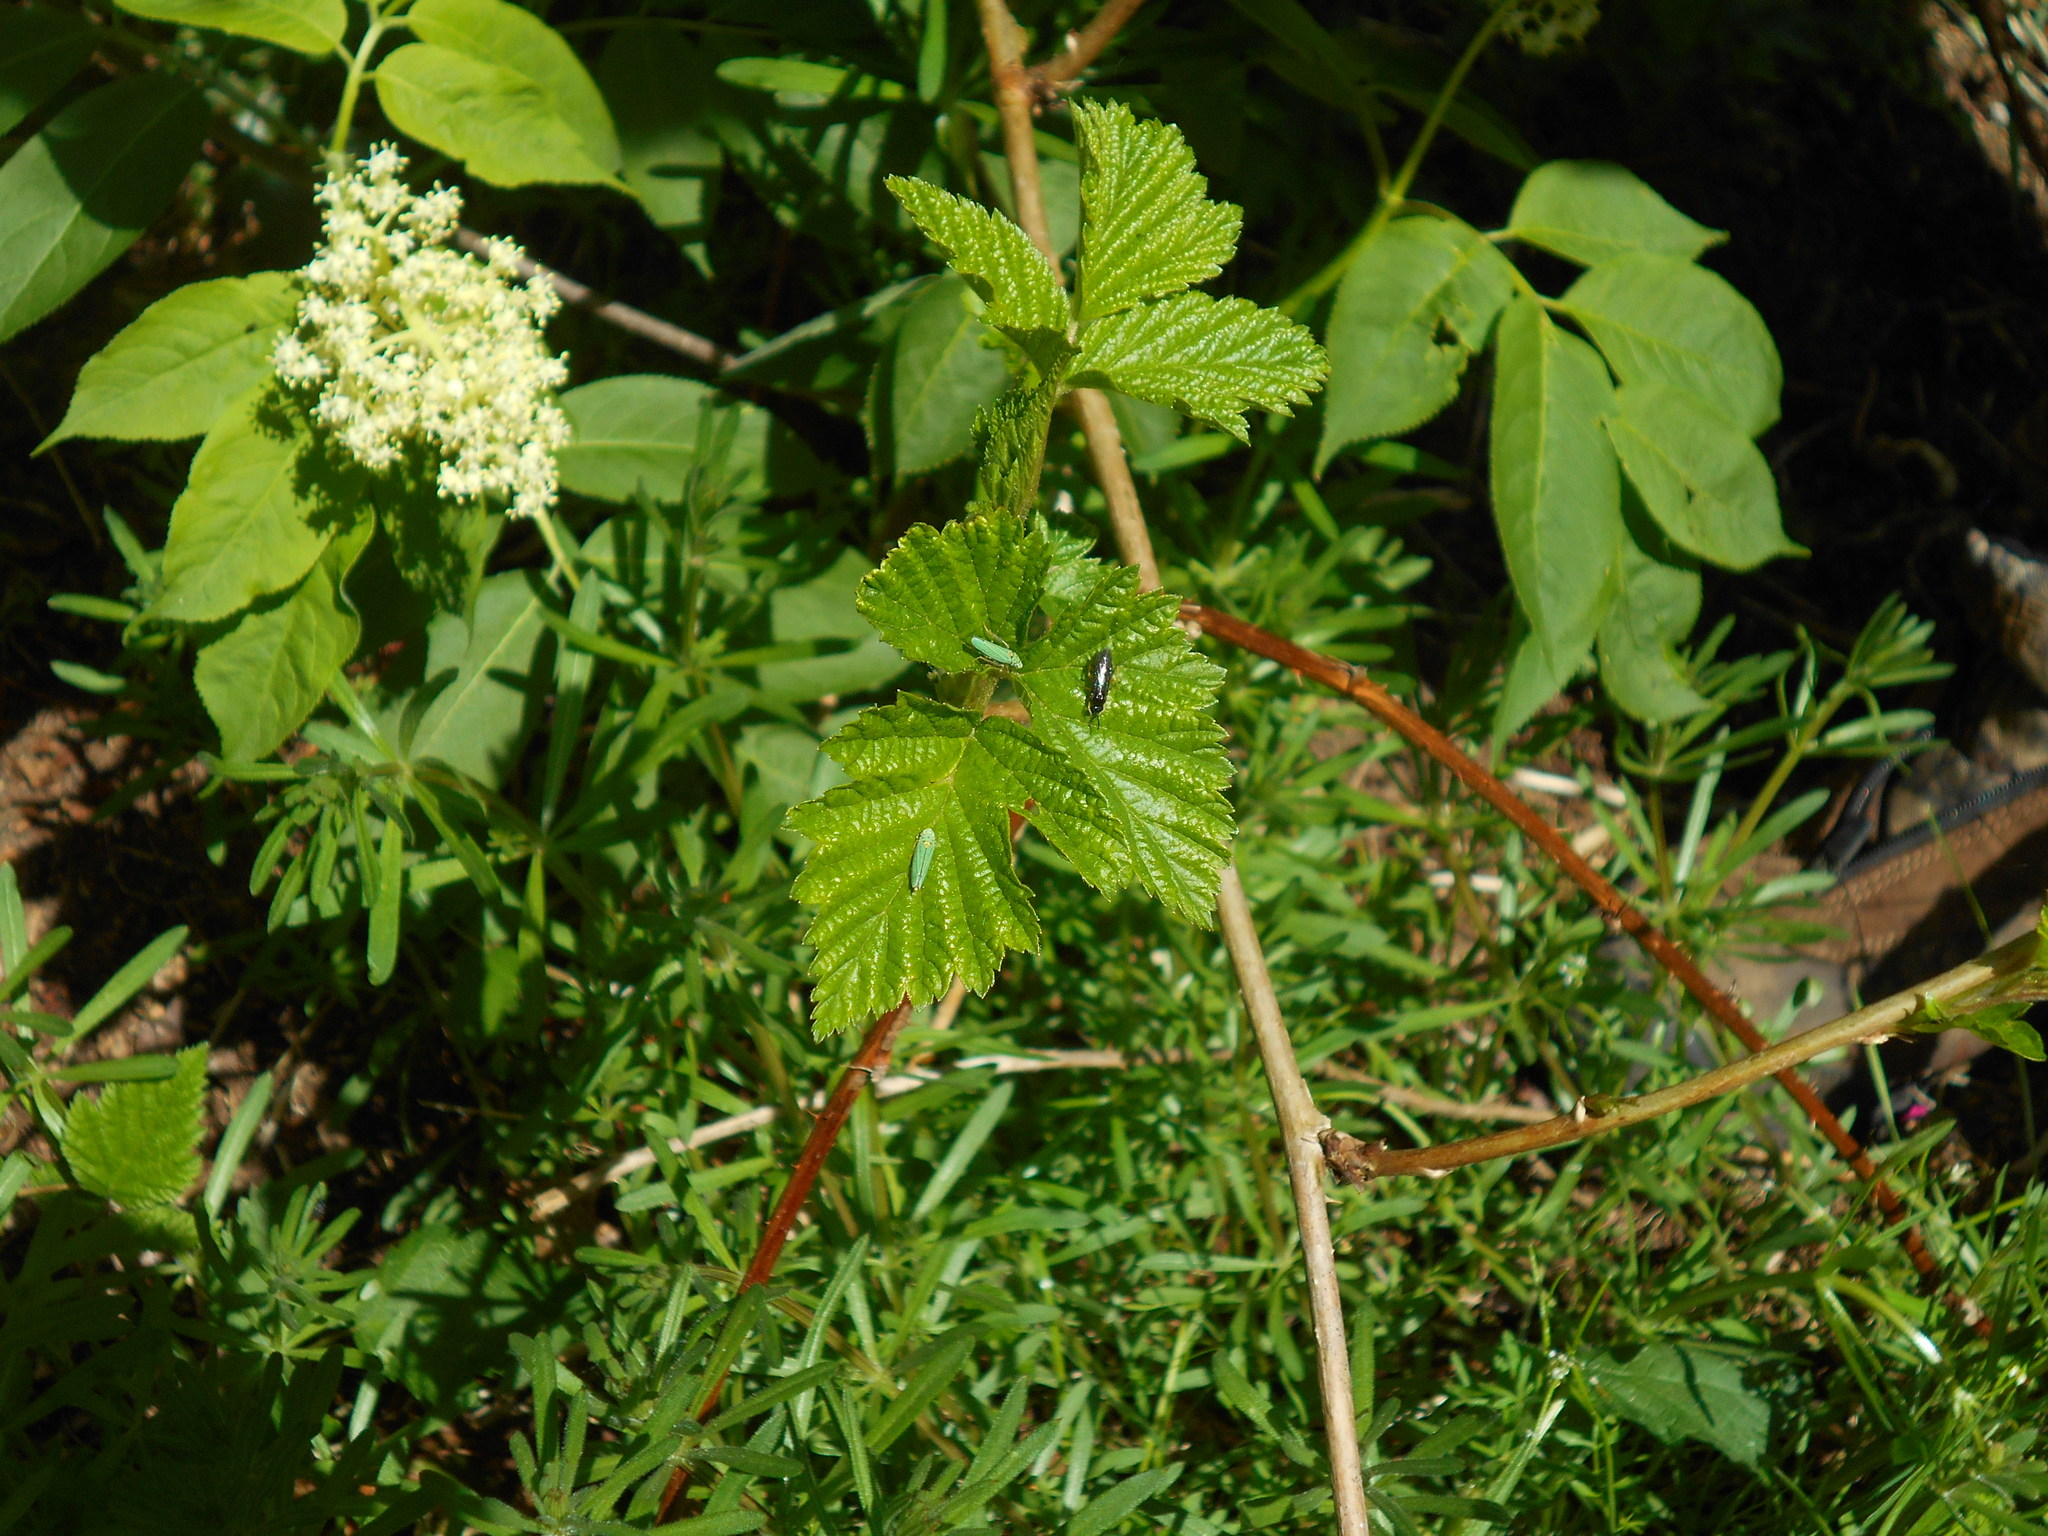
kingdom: Animalia
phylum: Arthropoda
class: Insecta
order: Hemiptera
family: Cicadellidae
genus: Graphocephala
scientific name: Graphocephala atropunctata
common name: Blue-green sharpshooter
